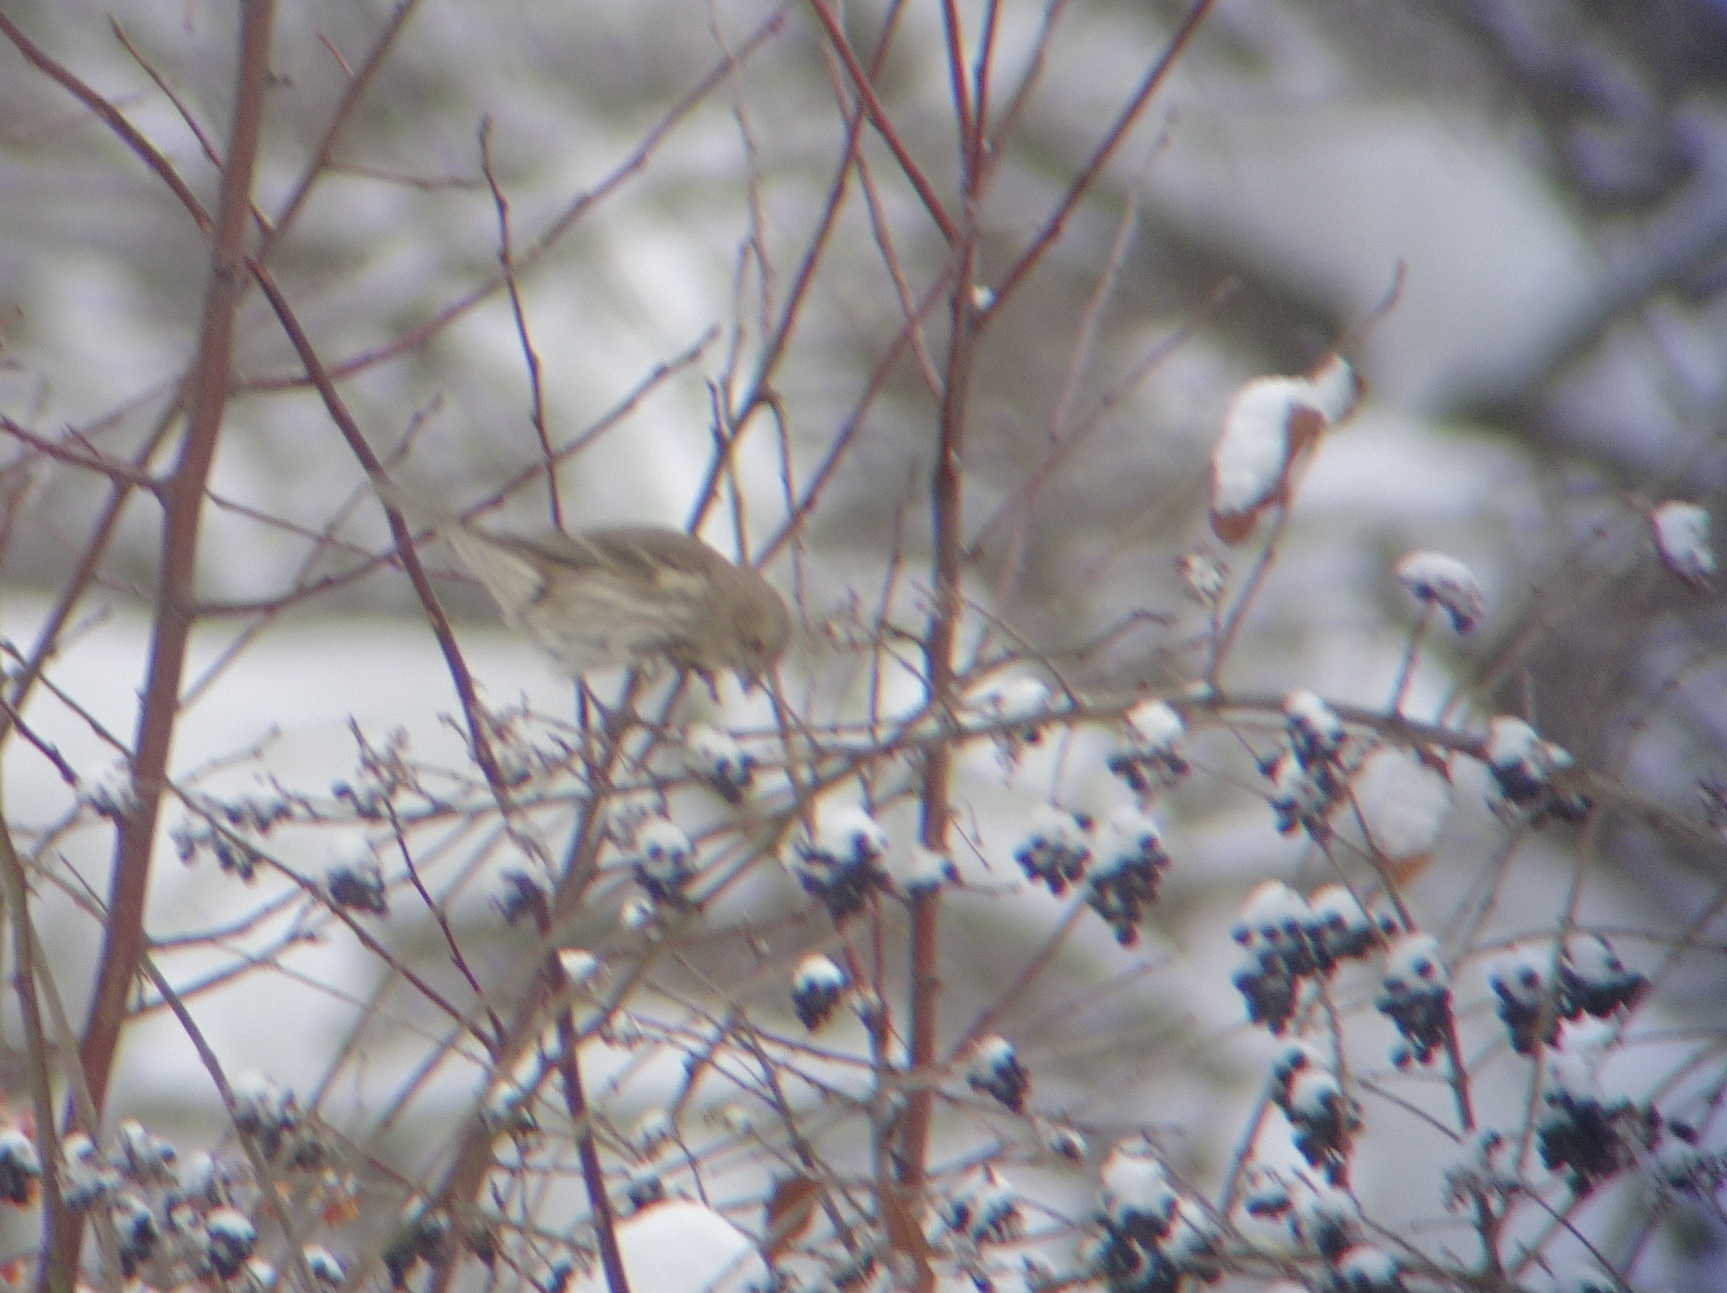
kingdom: Animalia
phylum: Chordata
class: Aves
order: Passeriformes
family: Fringillidae
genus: Haemorhous
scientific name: Haemorhous mexicanus
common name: House finch
